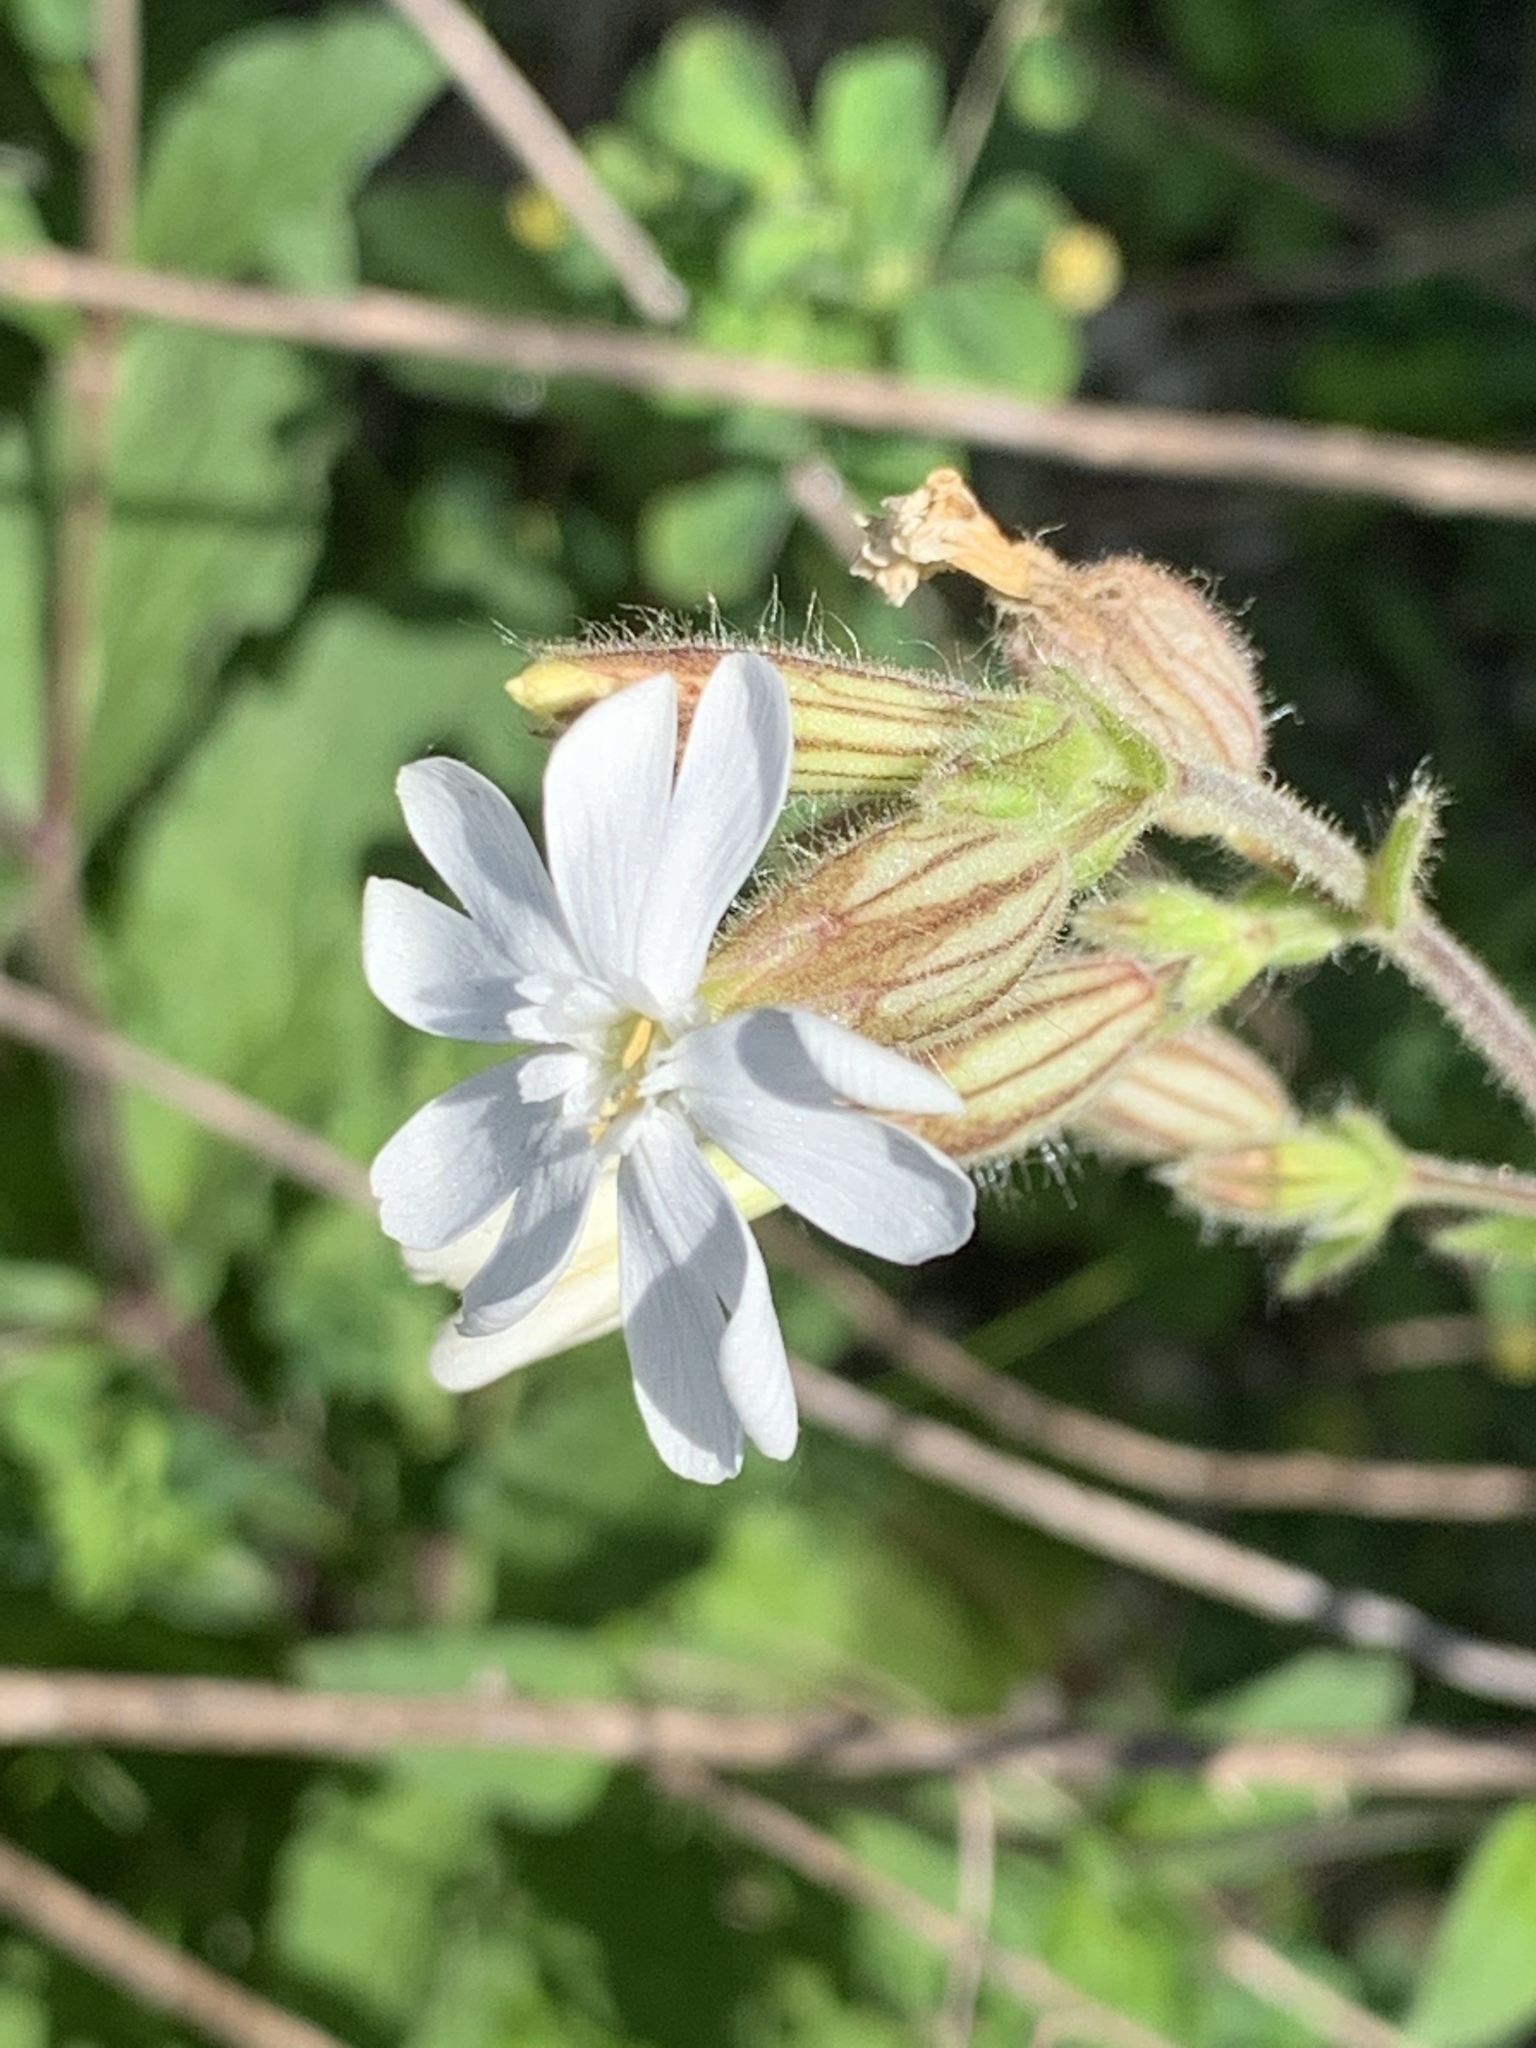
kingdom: Plantae
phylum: Tracheophyta
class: Magnoliopsida
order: Caryophyllales
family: Caryophyllaceae
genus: Silene
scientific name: Silene latifolia
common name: White campion
